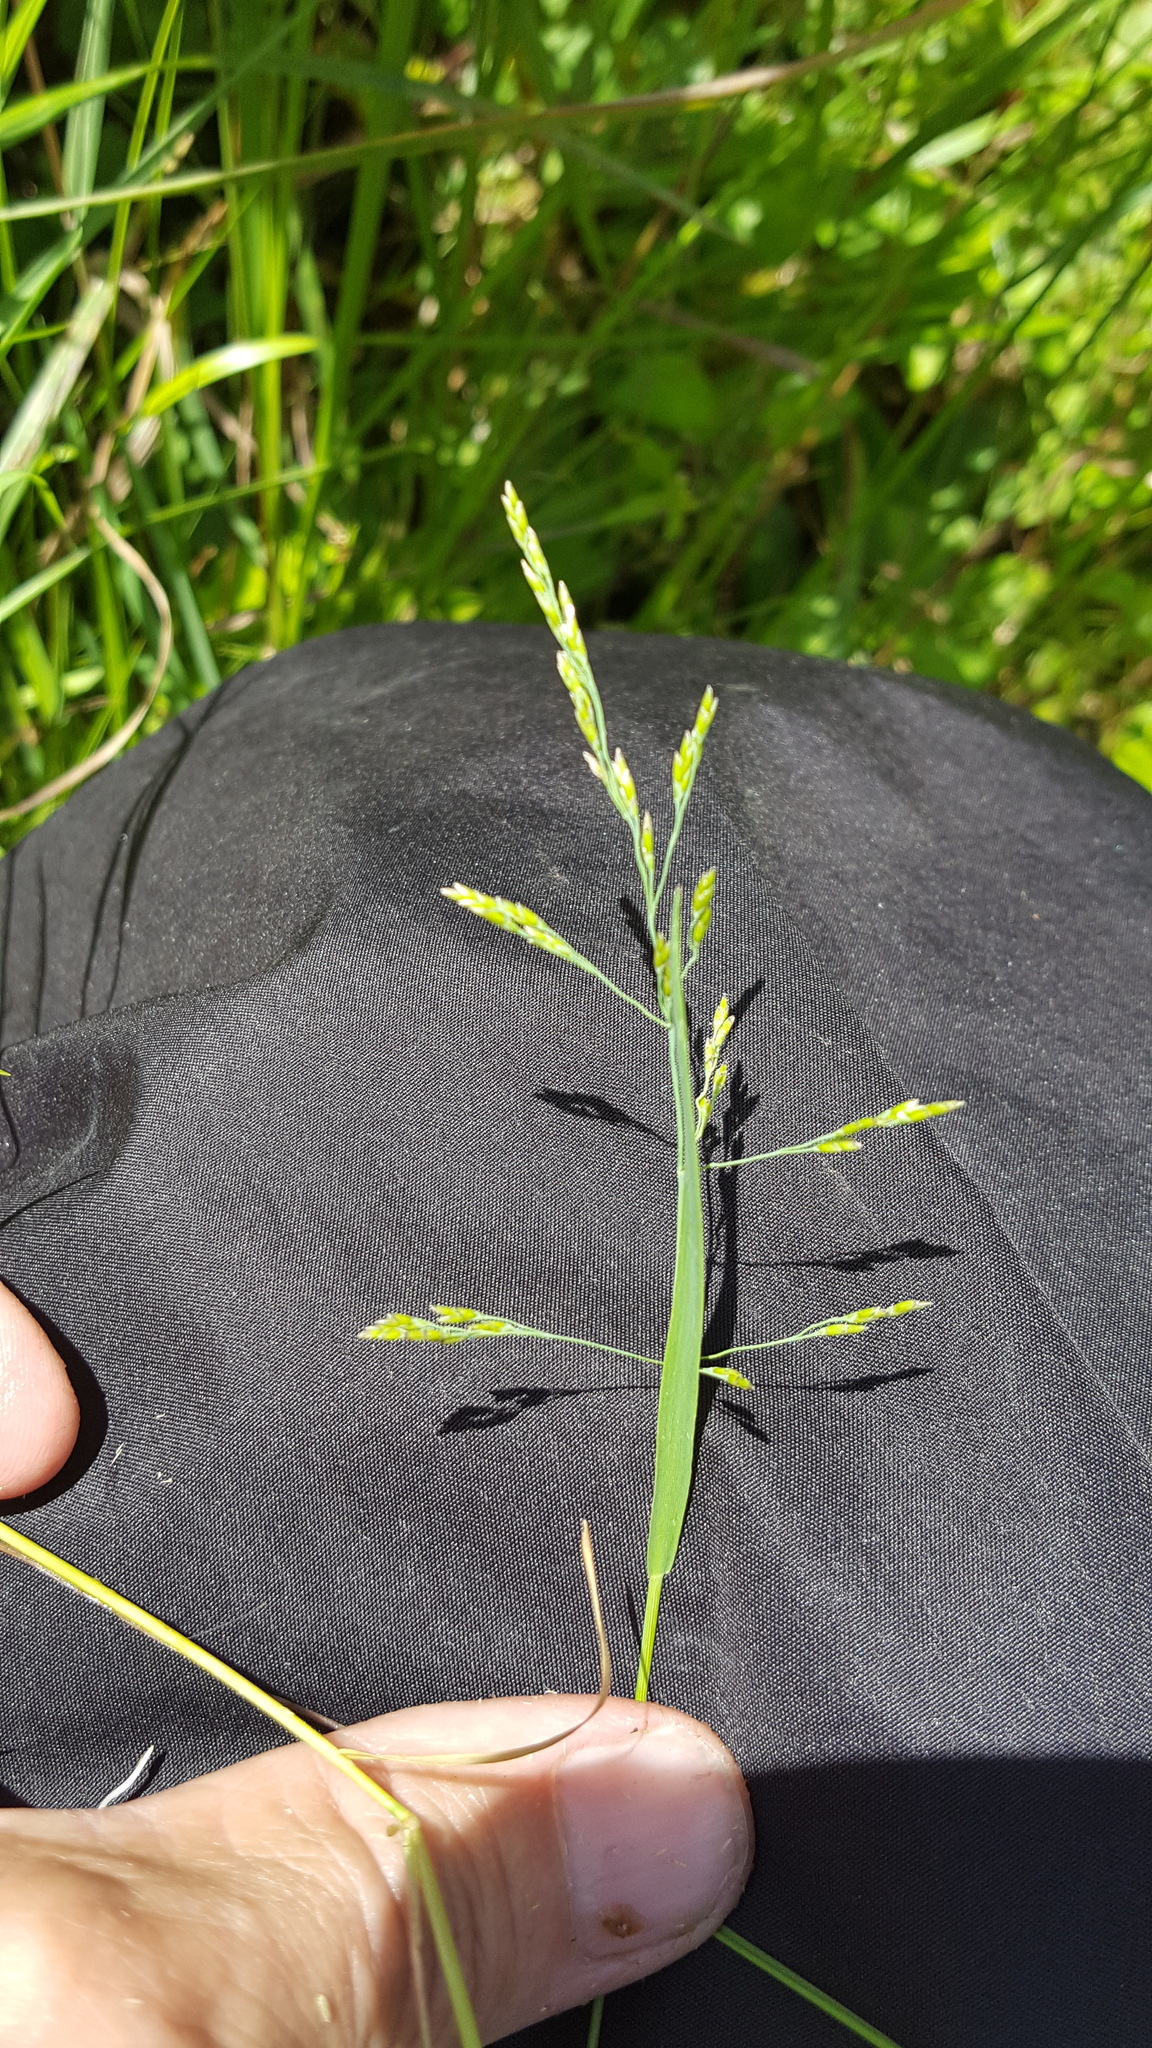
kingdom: Plantae
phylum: Tracheophyta
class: Liliopsida
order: Poales
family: Poaceae
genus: Torreyochloa
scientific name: Torreyochloa pallida
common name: Pale false mannagrass
